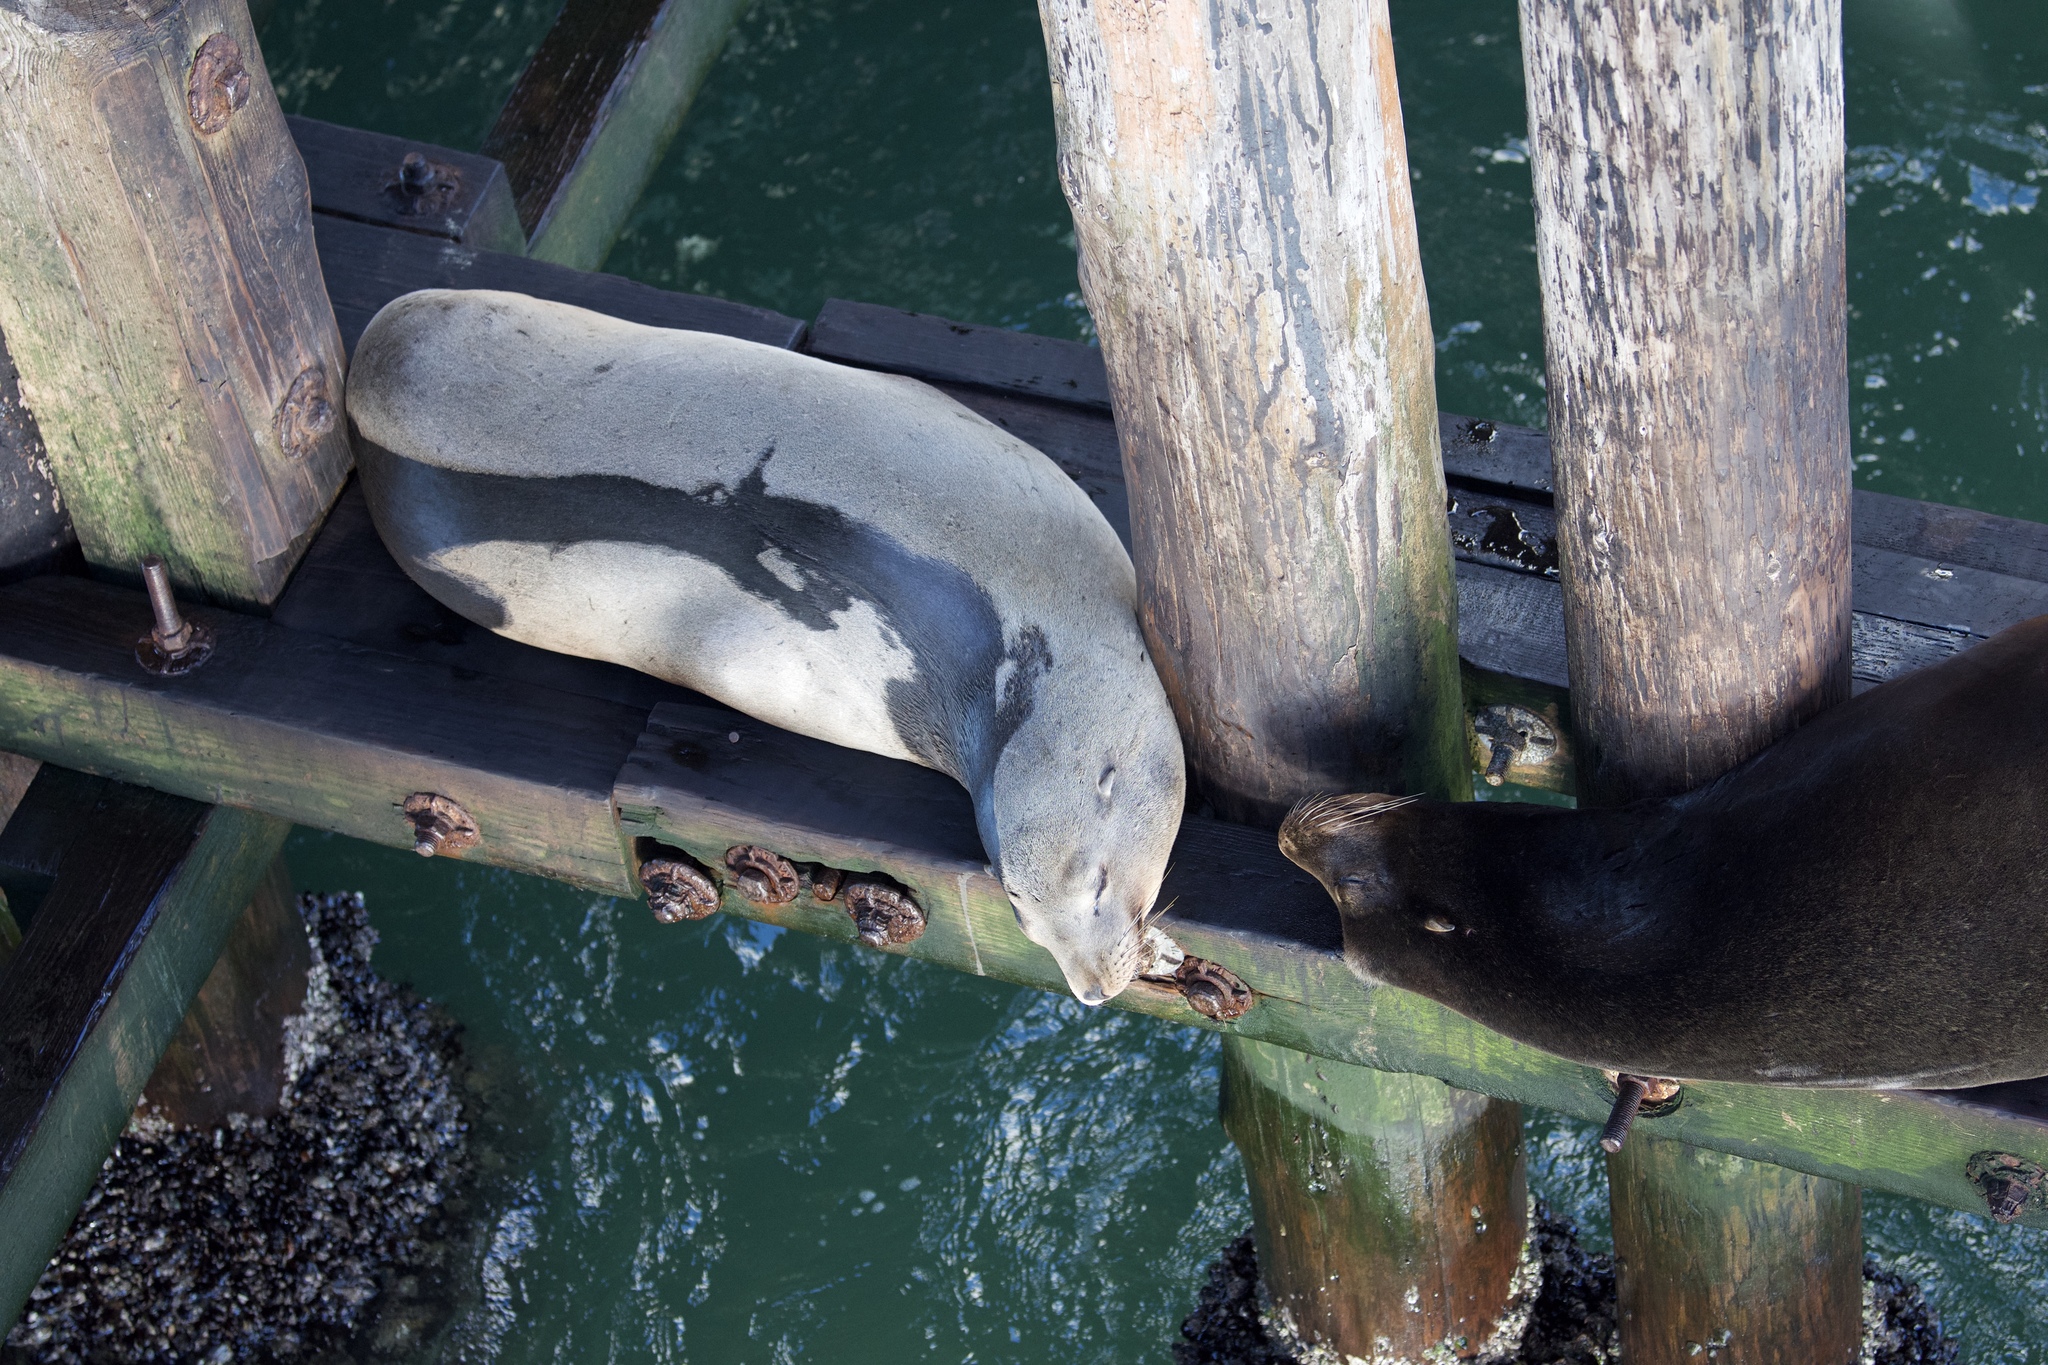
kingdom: Animalia
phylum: Chordata
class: Mammalia
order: Carnivora
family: Otariidae
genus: Zalophus
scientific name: Zalophus californianus
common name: California sea lion
